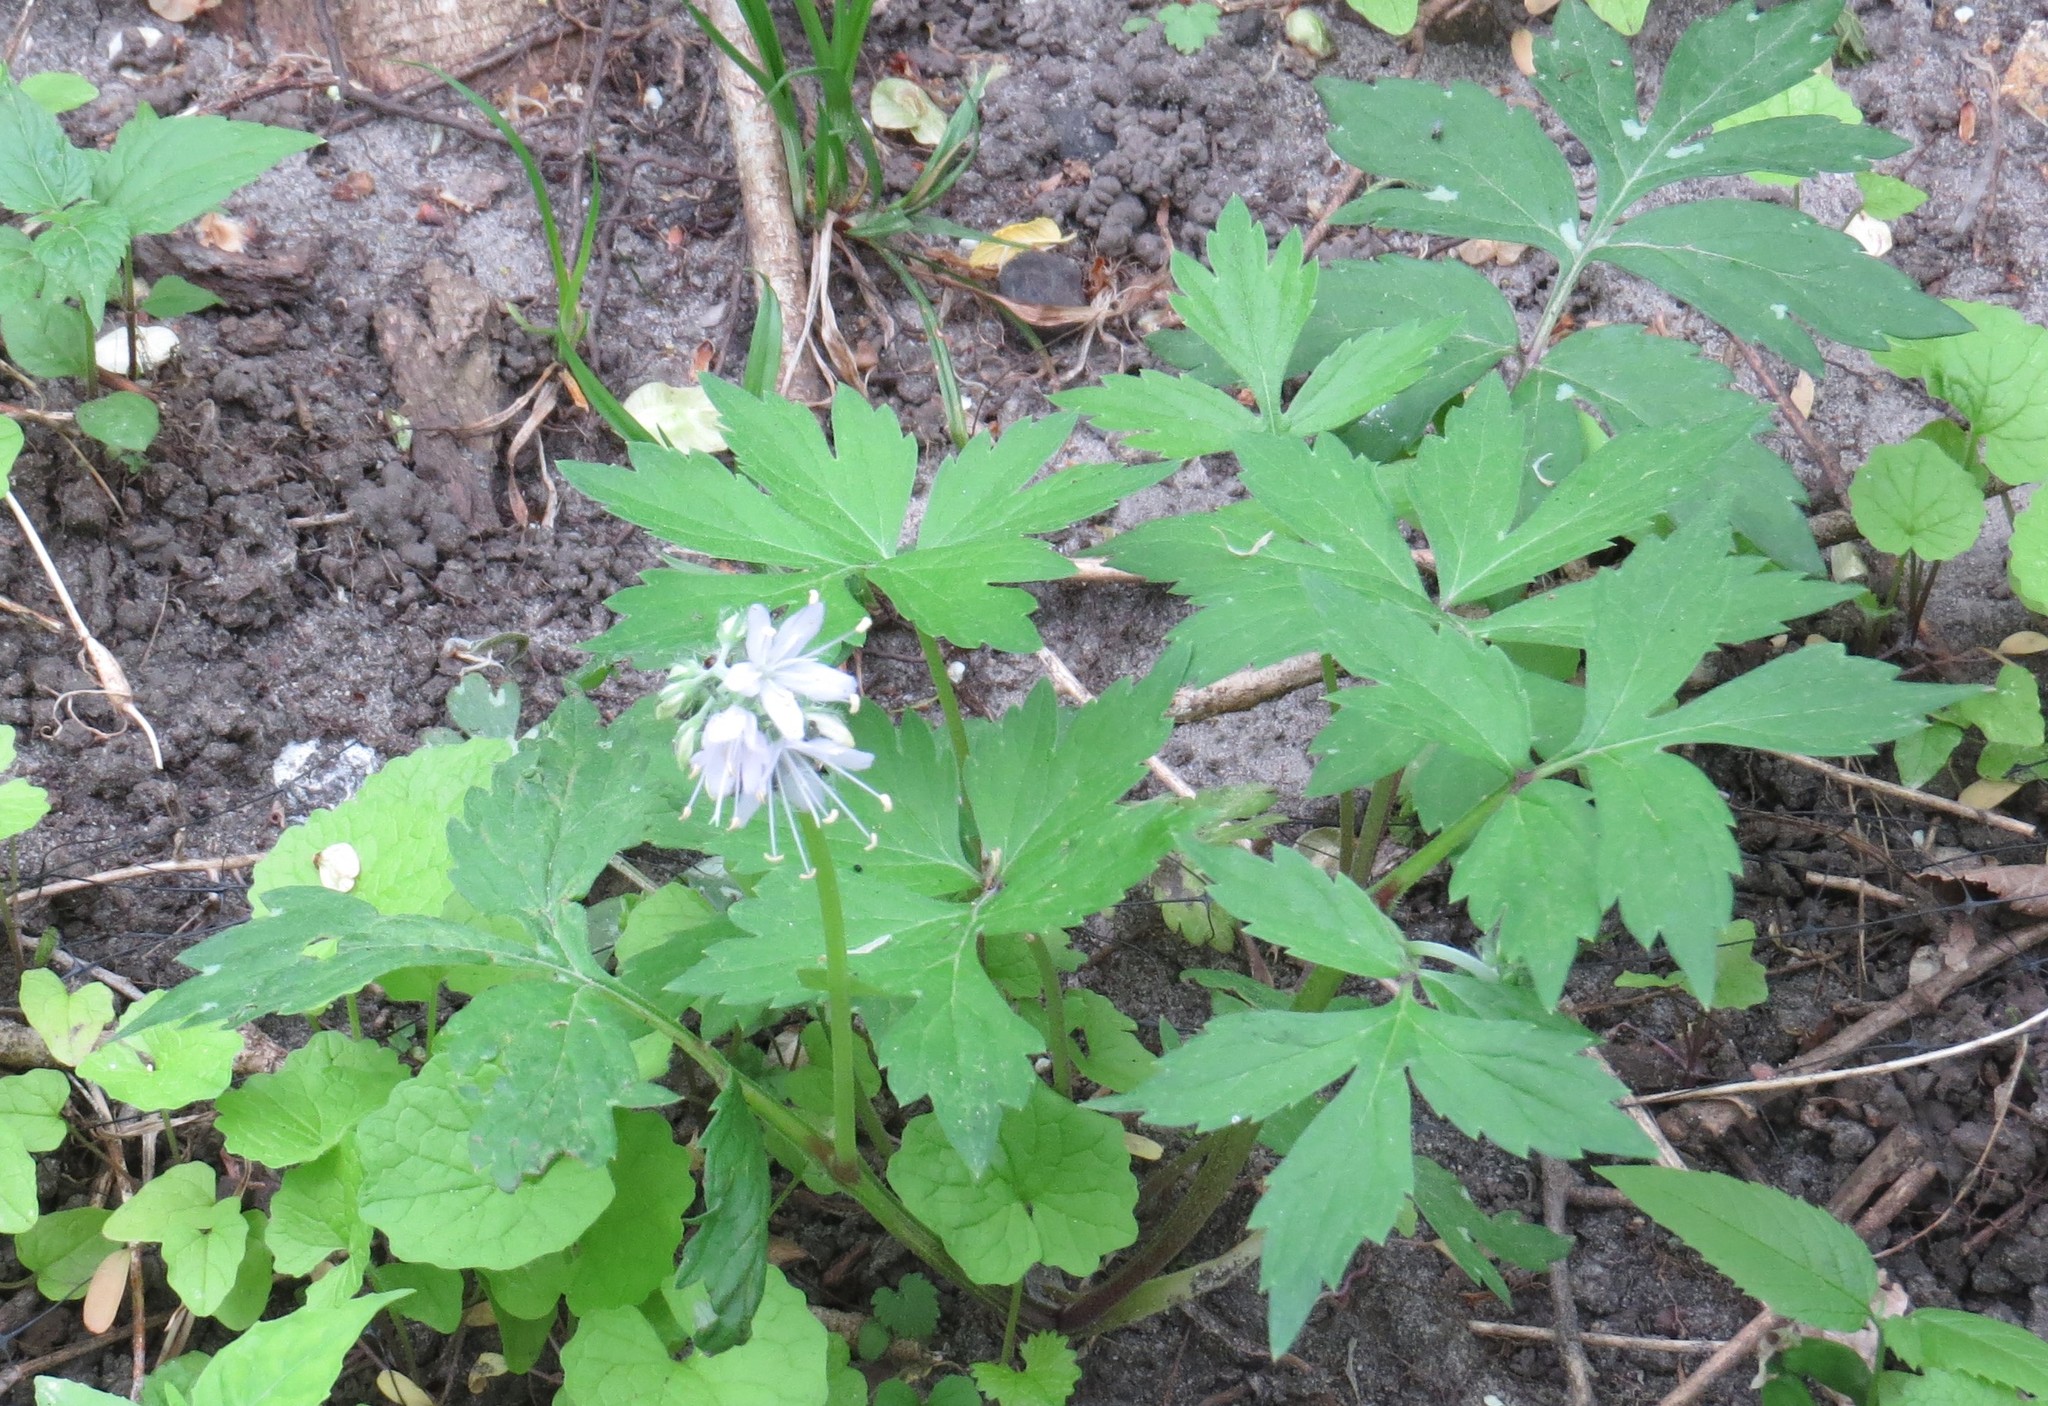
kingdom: Plantae
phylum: Tracheophyta
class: Magnoliopsida
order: Boraginales
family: Hydrophyllaceae
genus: Hydrophyllum
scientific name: Hydrophyllum virginianum
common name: Virginia waterleaf
